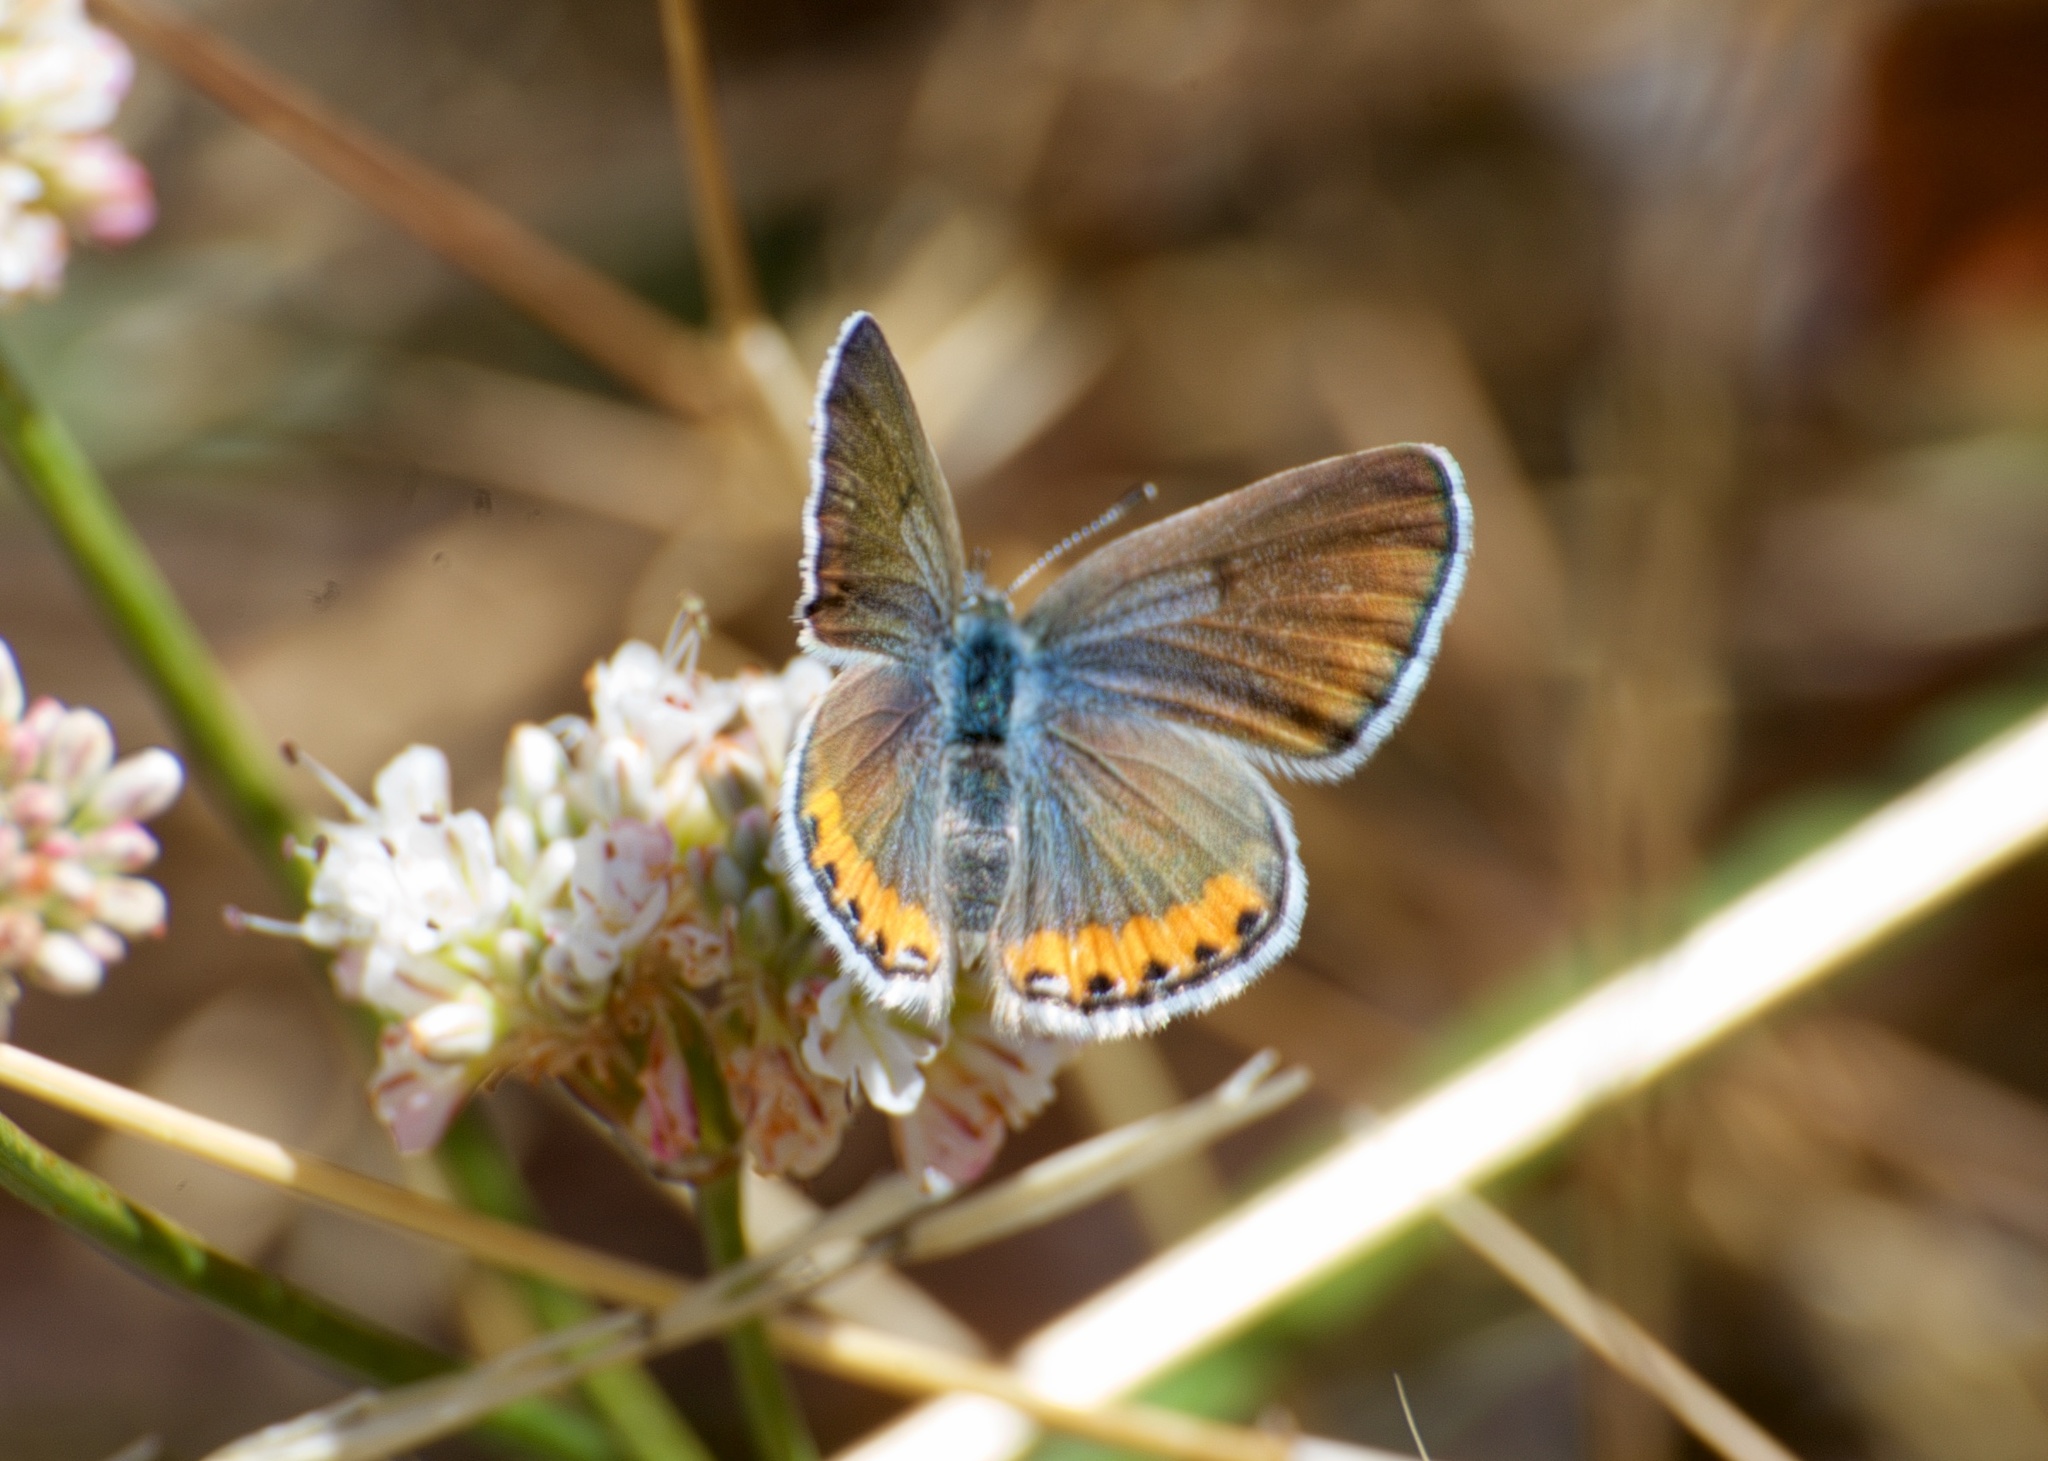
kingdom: Animalia
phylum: Arthropoda
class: Insecta
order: Lepidoptera
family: Lycaenidae
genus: Icaricia
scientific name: Icaricia acmon
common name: Acmon blue
